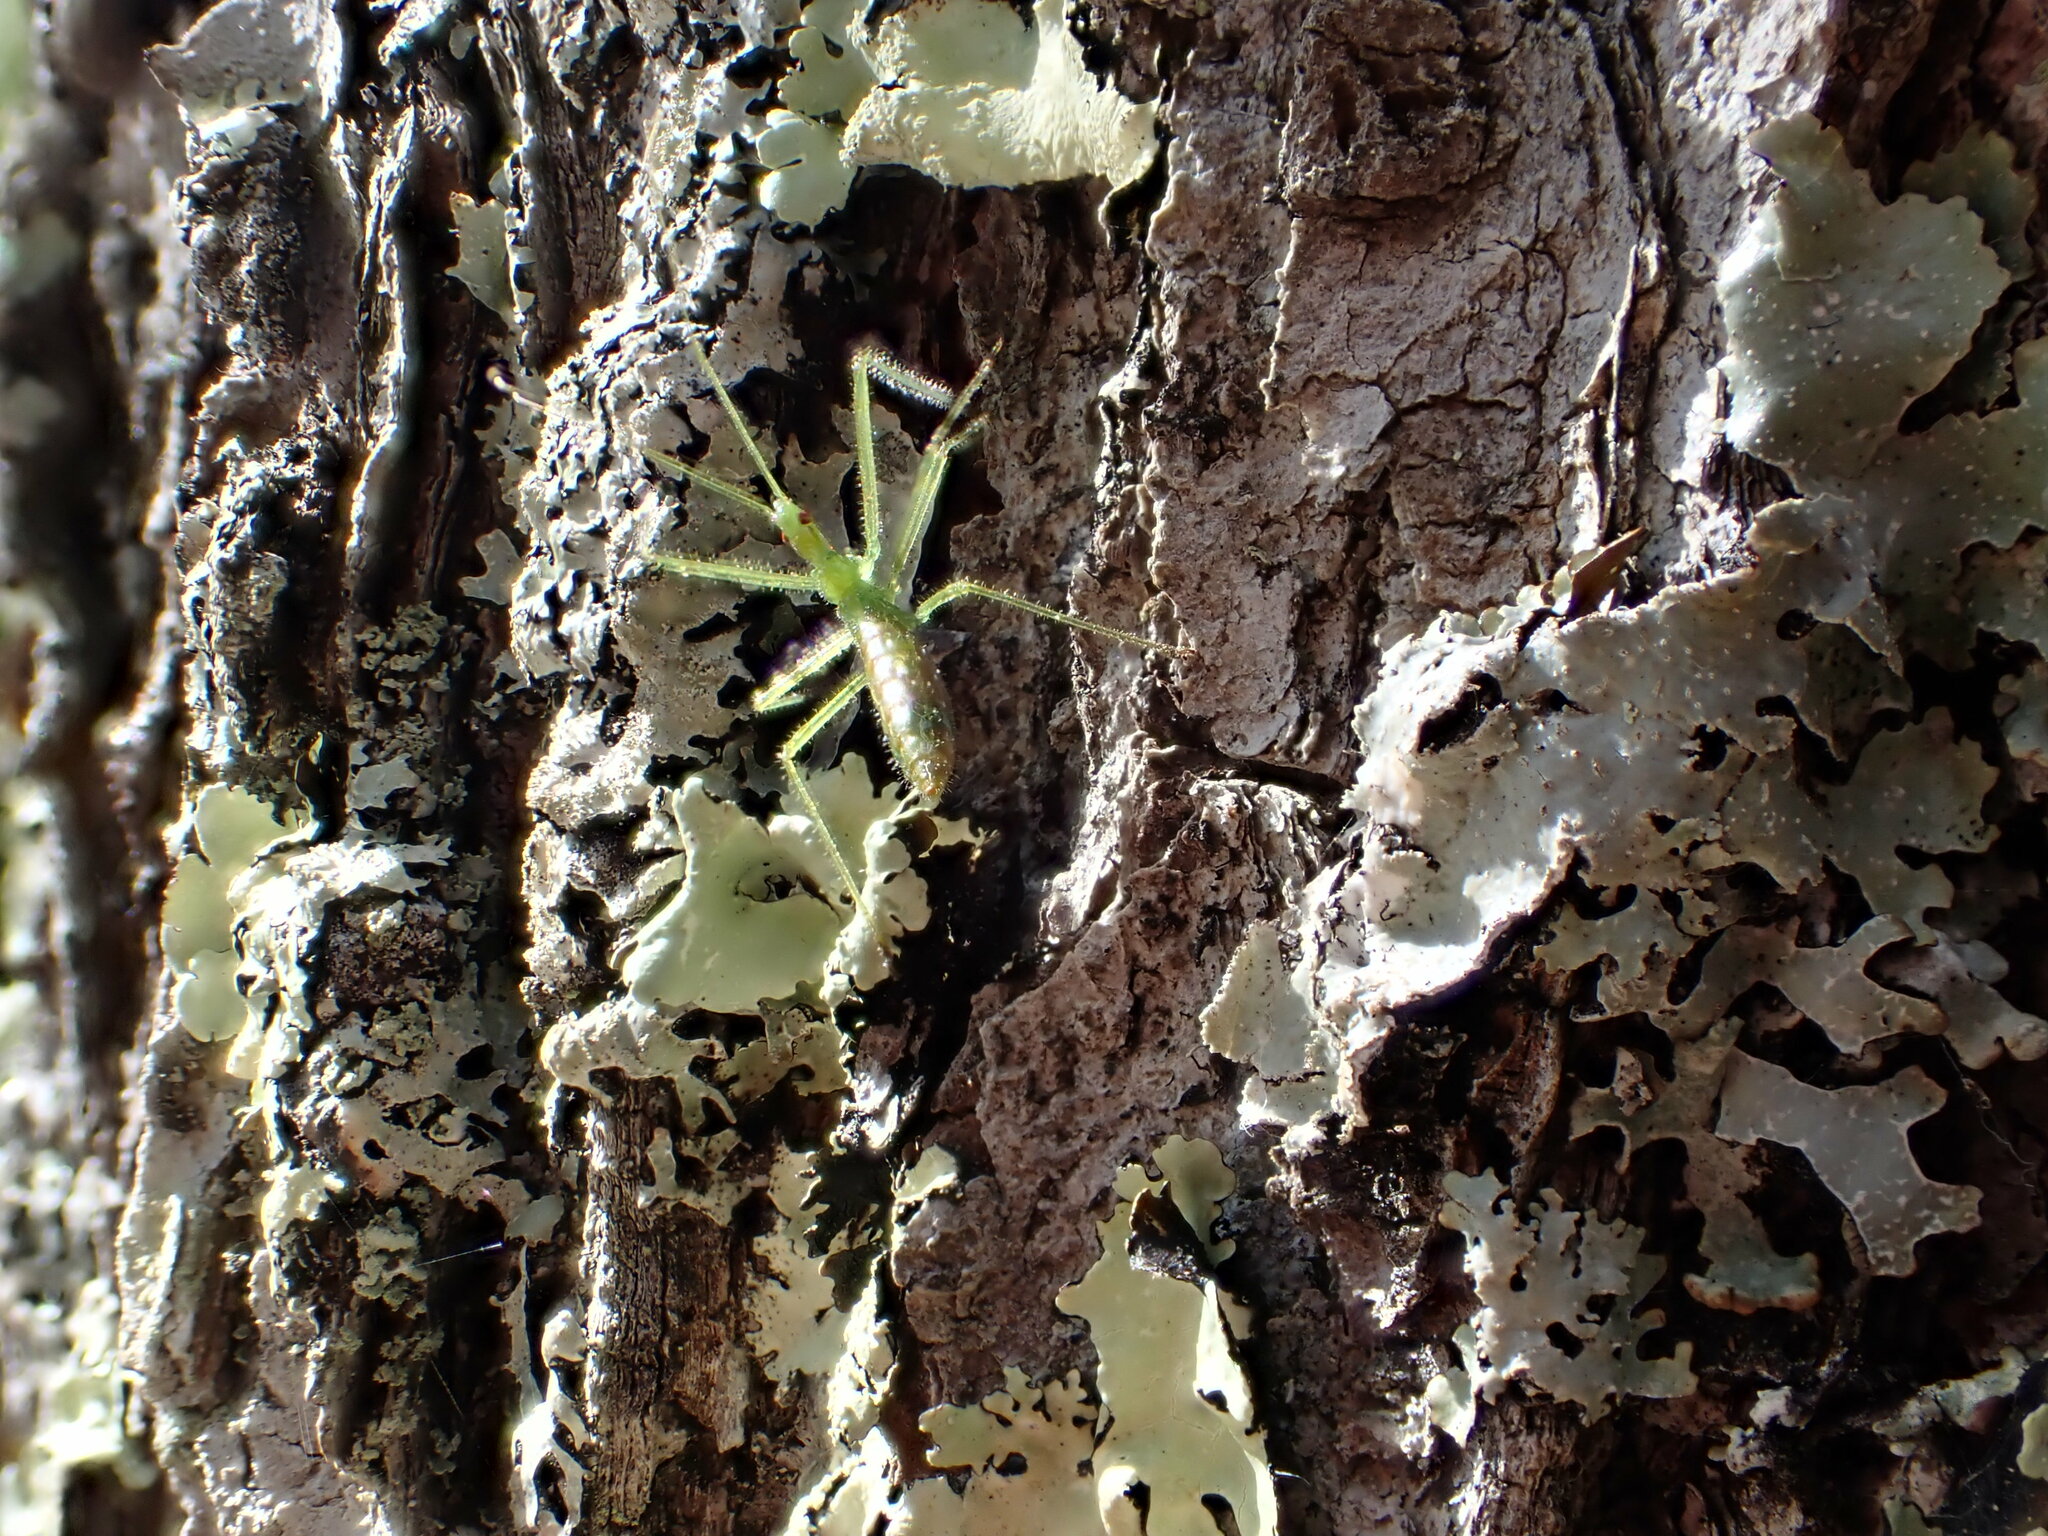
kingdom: Animalia
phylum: Arthropoda
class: Insecta
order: Hemiptera
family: Reduviidae
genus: Zelus
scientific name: Zelus luridus
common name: Pale green assassin bug
